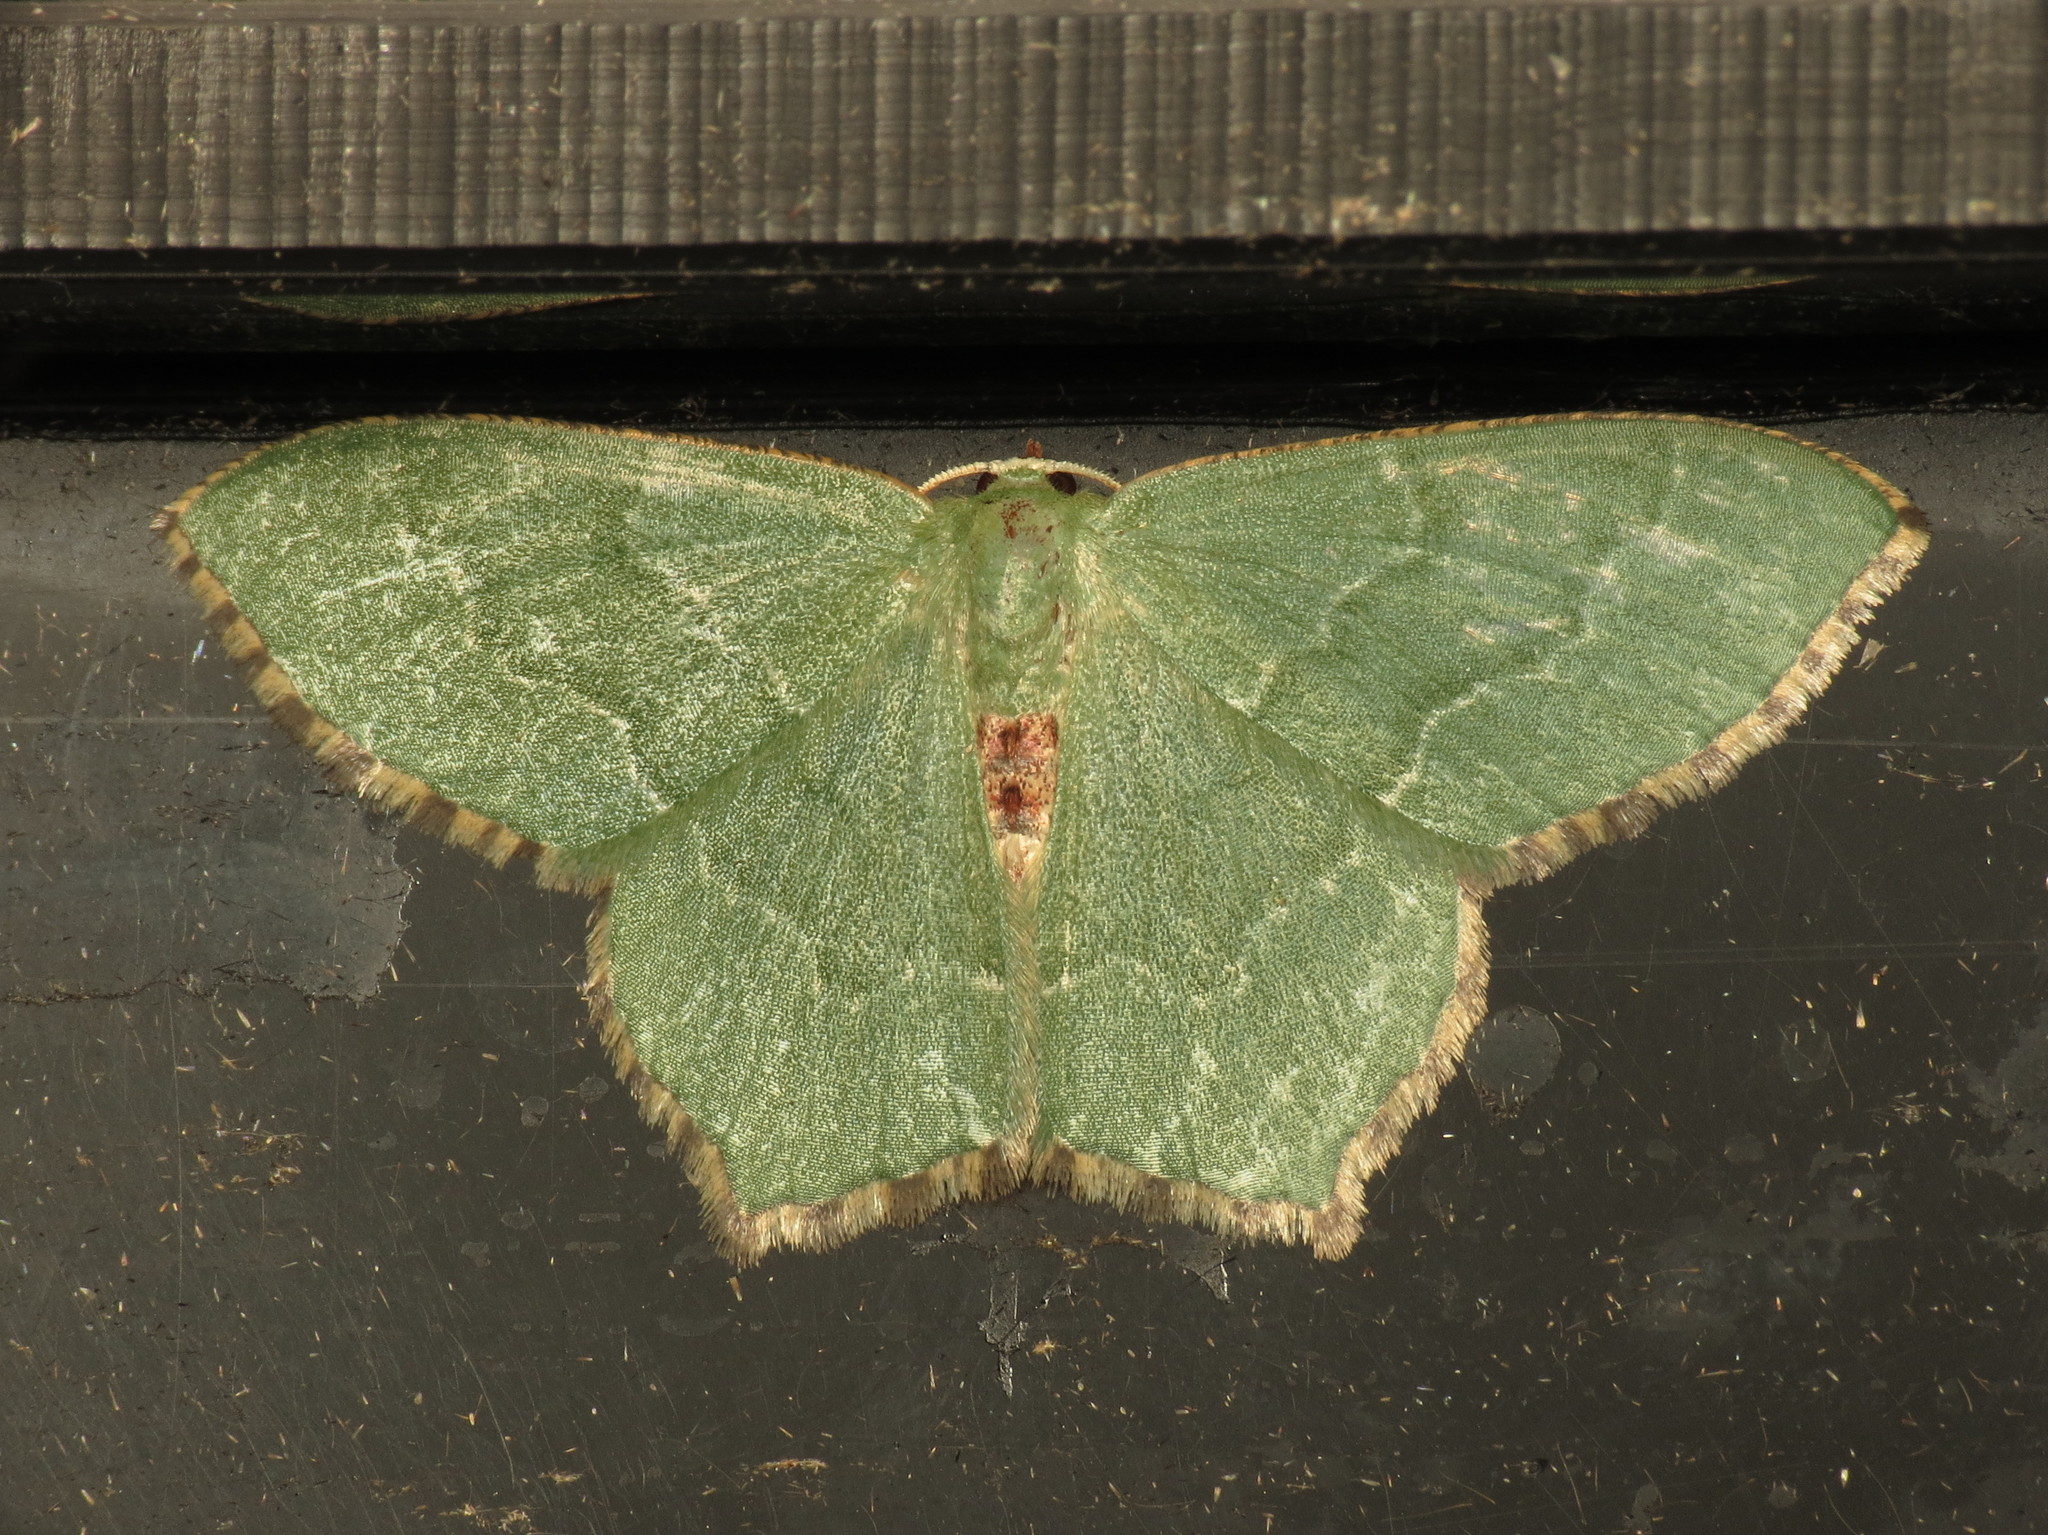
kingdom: Animalia
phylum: Arthropoda
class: Insecta
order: Lepidoptera
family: Geometridae
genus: Hemithea
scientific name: Hemithea aestivaria
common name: Common emerald
